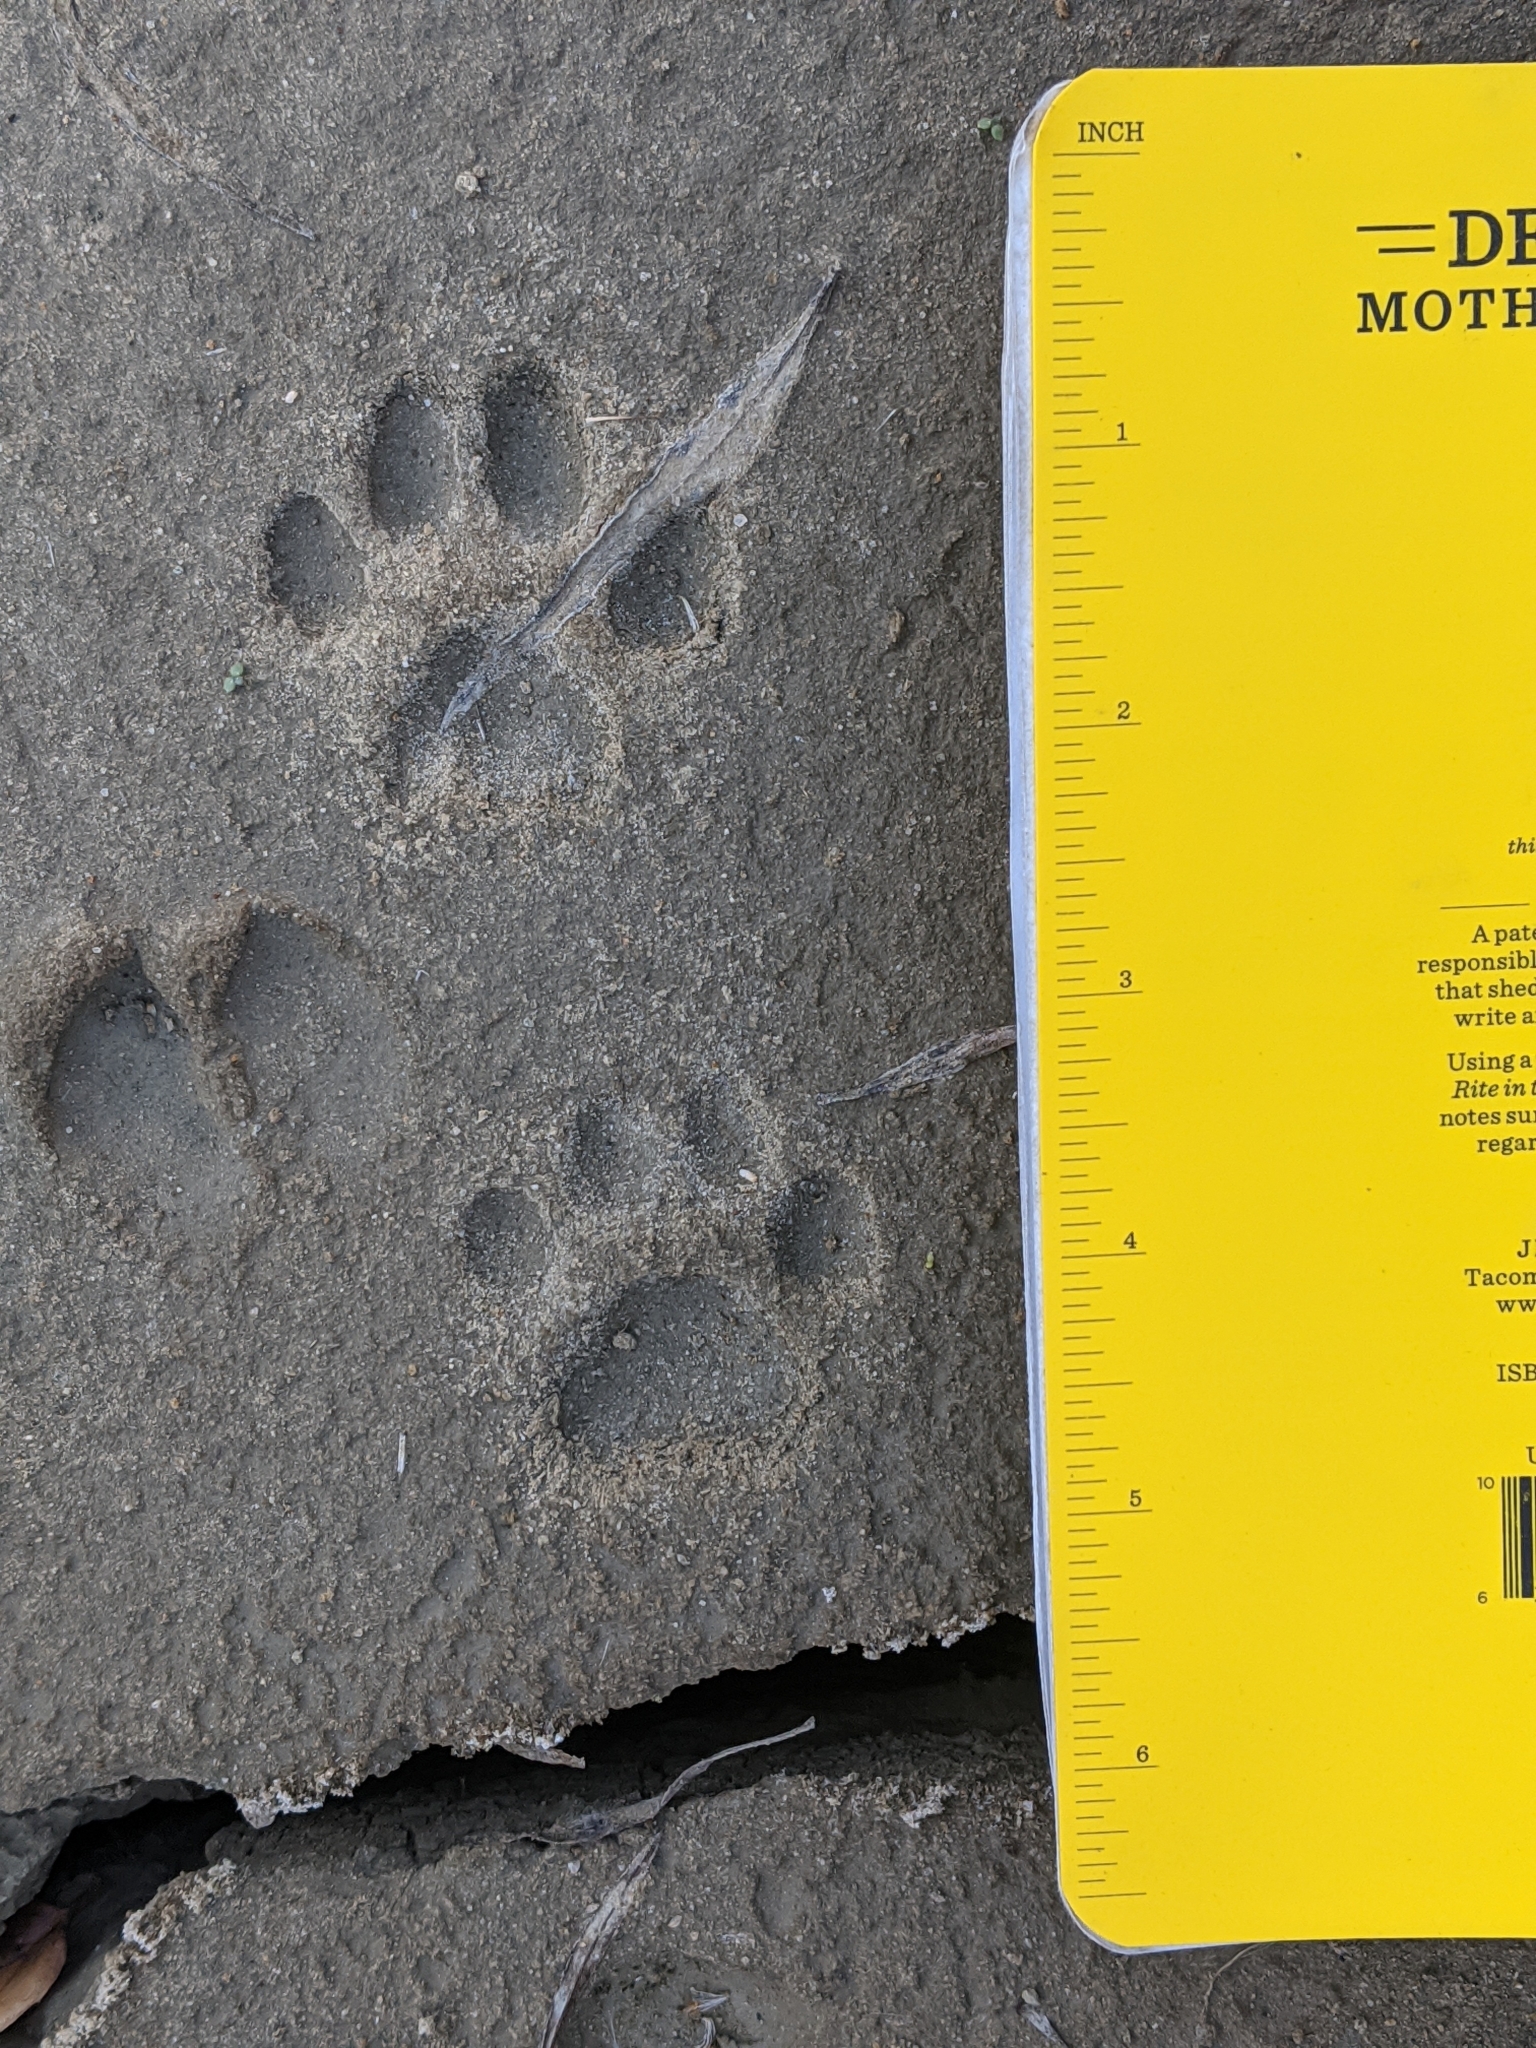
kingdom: Animalia
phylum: Chordata
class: Mammalia
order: Carnivora
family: Felidae
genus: Lynx
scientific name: Lynx rufus
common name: Bobcat
